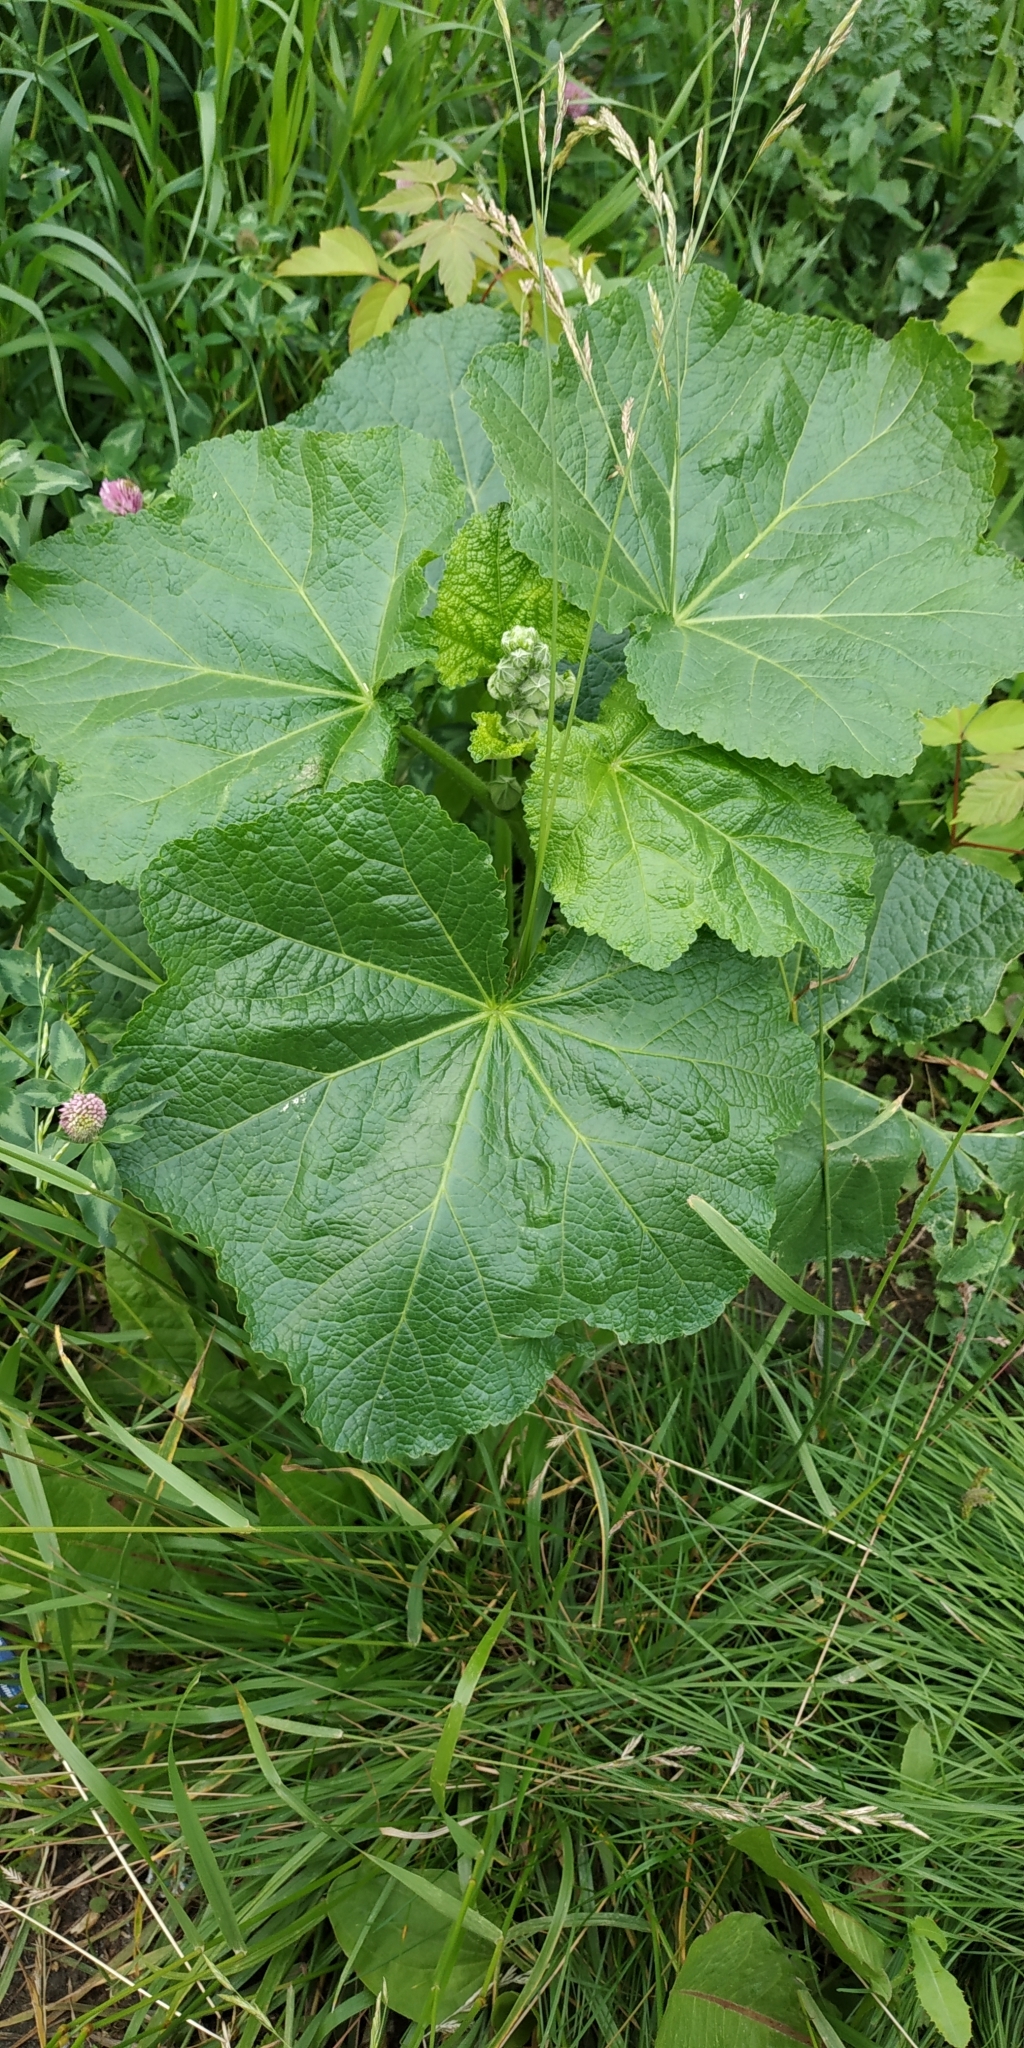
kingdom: Plantae
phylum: Tracheophyta
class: Magnoliopsida
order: Malvales
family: Malvaceae
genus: Alcea
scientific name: Alcea rosea
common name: Hollyhock
